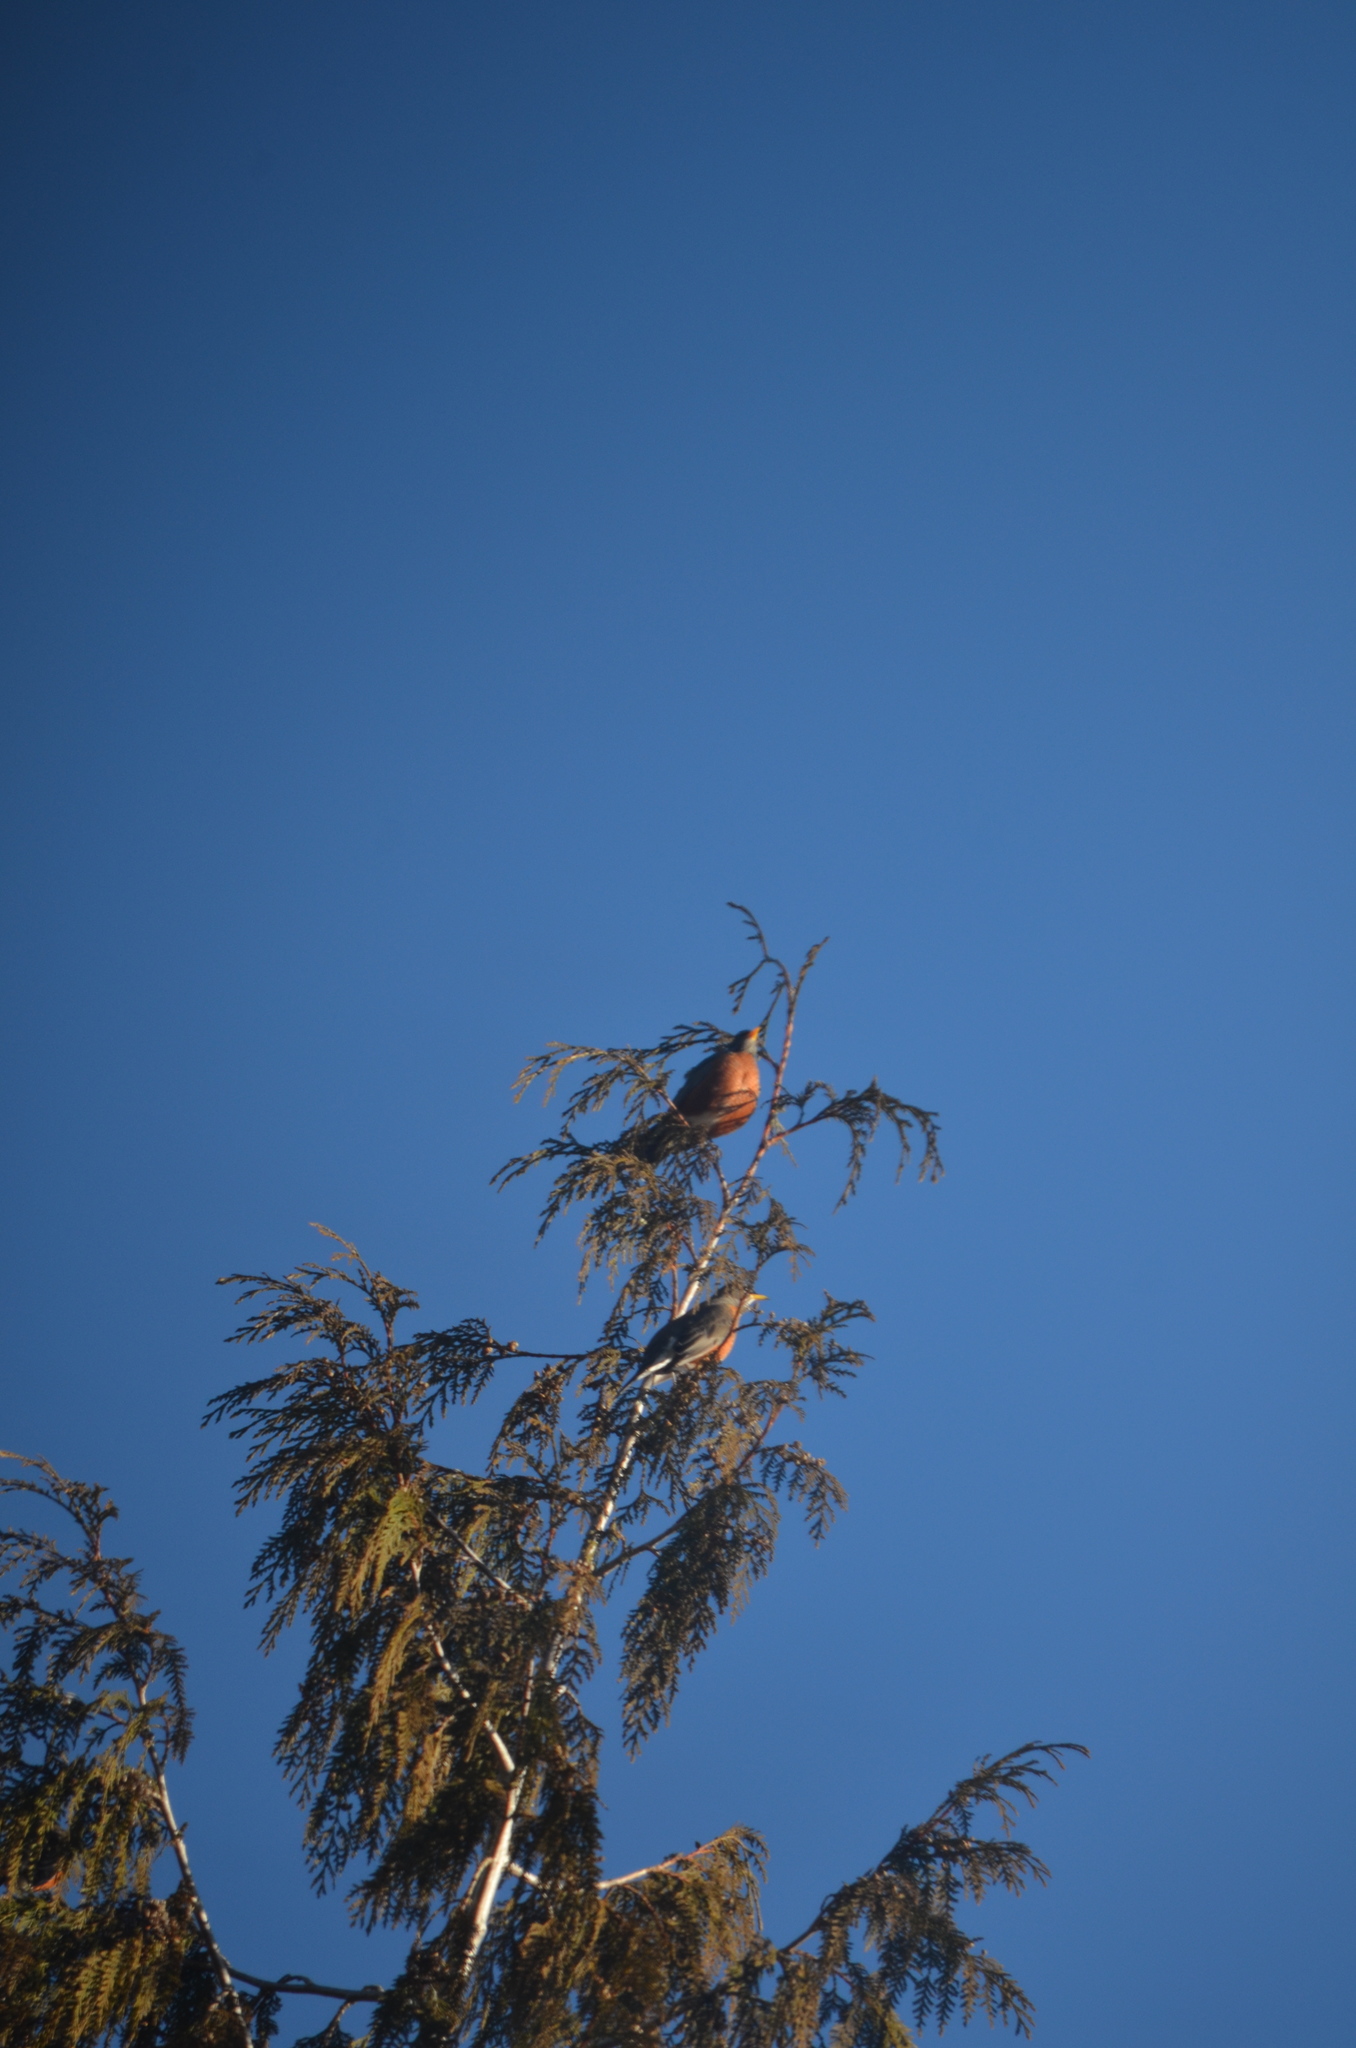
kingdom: Animalia
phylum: Chordata
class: Aves
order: Passeriformes
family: Turdidae
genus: Turdus
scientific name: Turdus migratorius
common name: American robin
